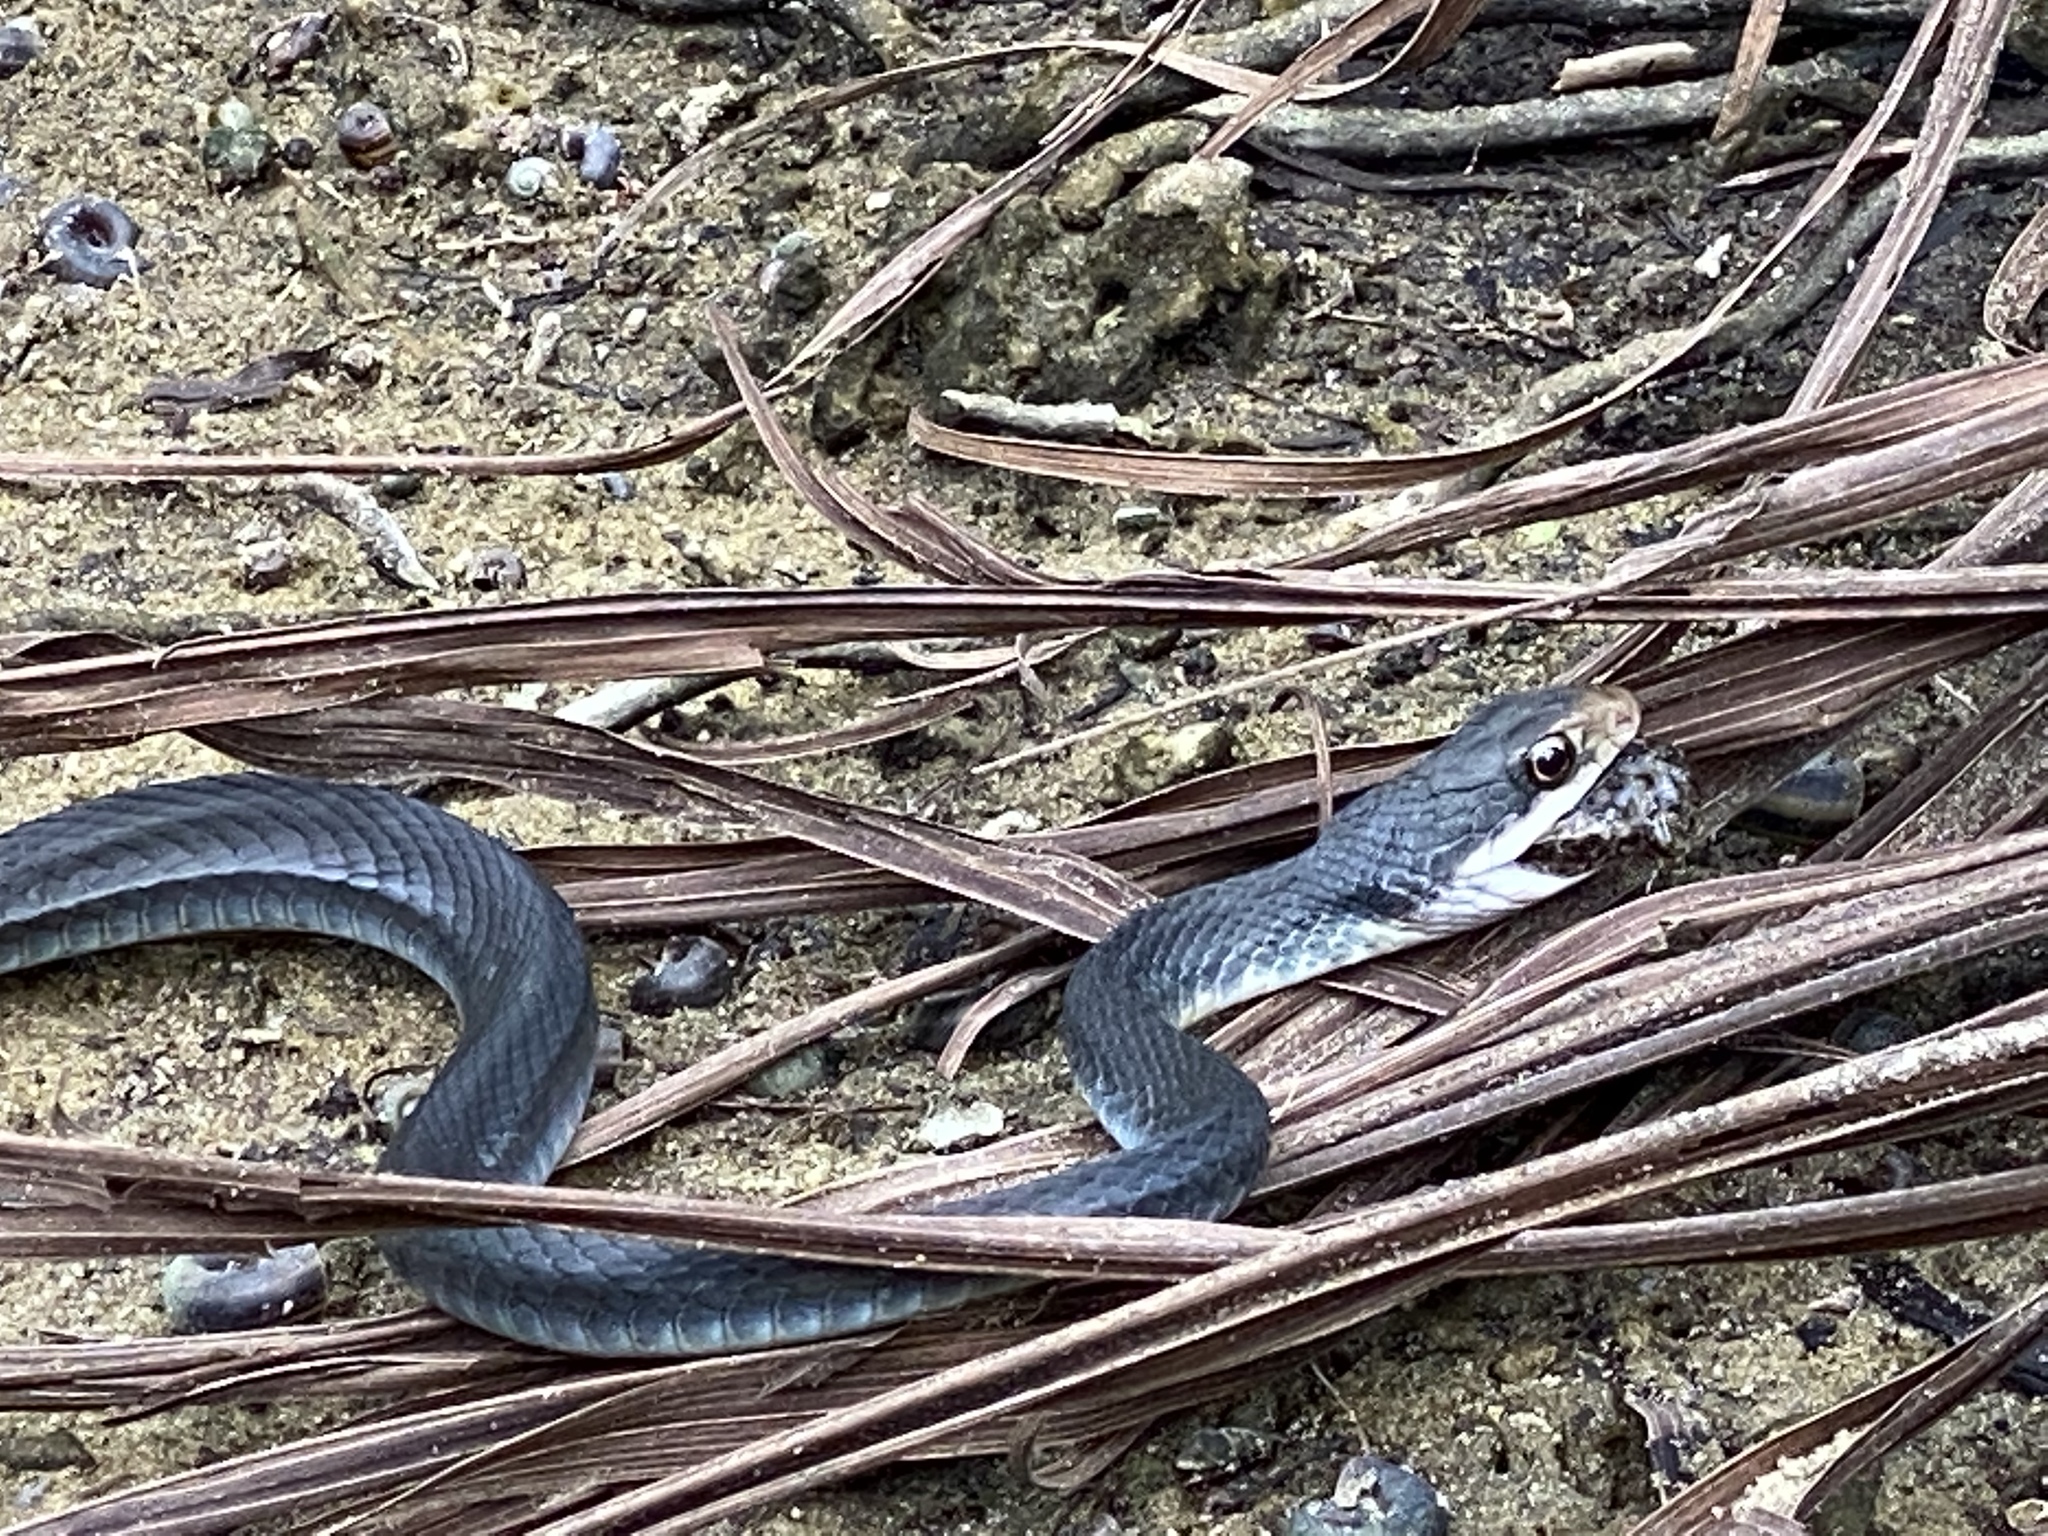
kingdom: Animalia
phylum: Chordata
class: Squamata
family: Colubridae
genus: Coluber
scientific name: Coluber constrictor
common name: Eastern racer
